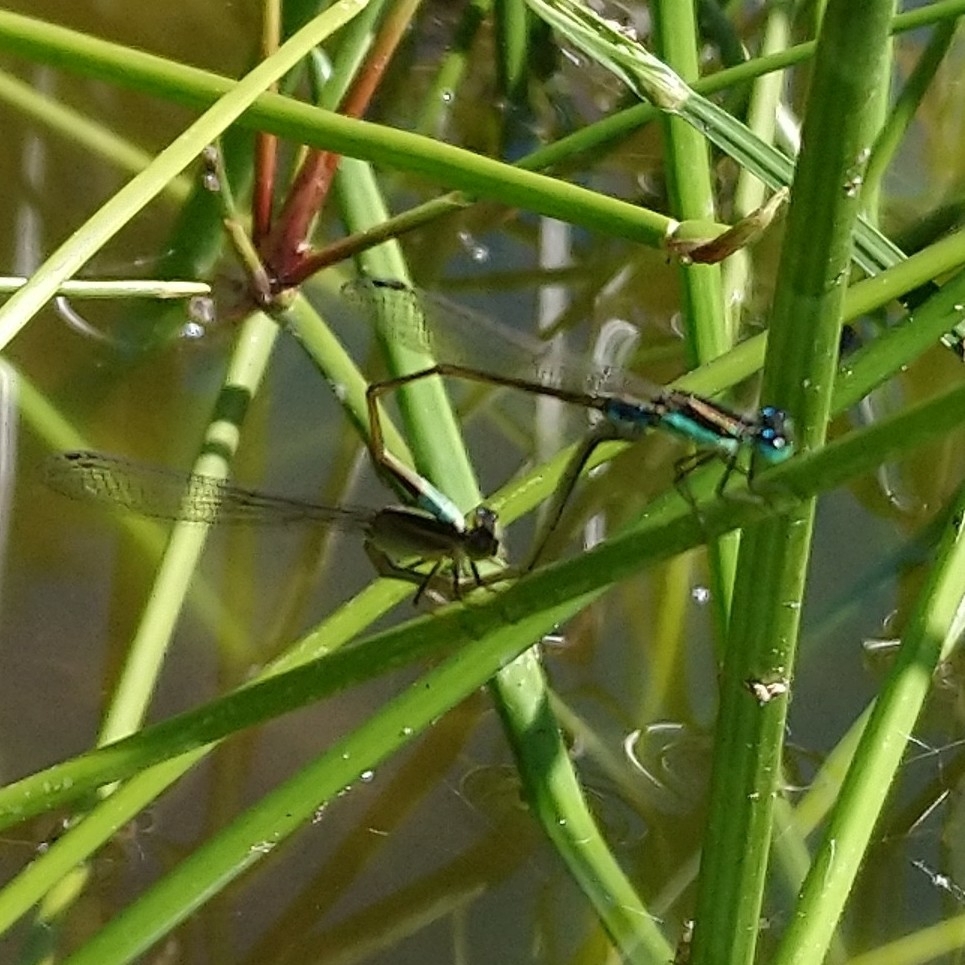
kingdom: Animalia
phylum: Arthropoda
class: Insecta
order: Odonata
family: Coenagrionidae
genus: Ischnura
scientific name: Ischnura senegalensis
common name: Tropical bluetail
